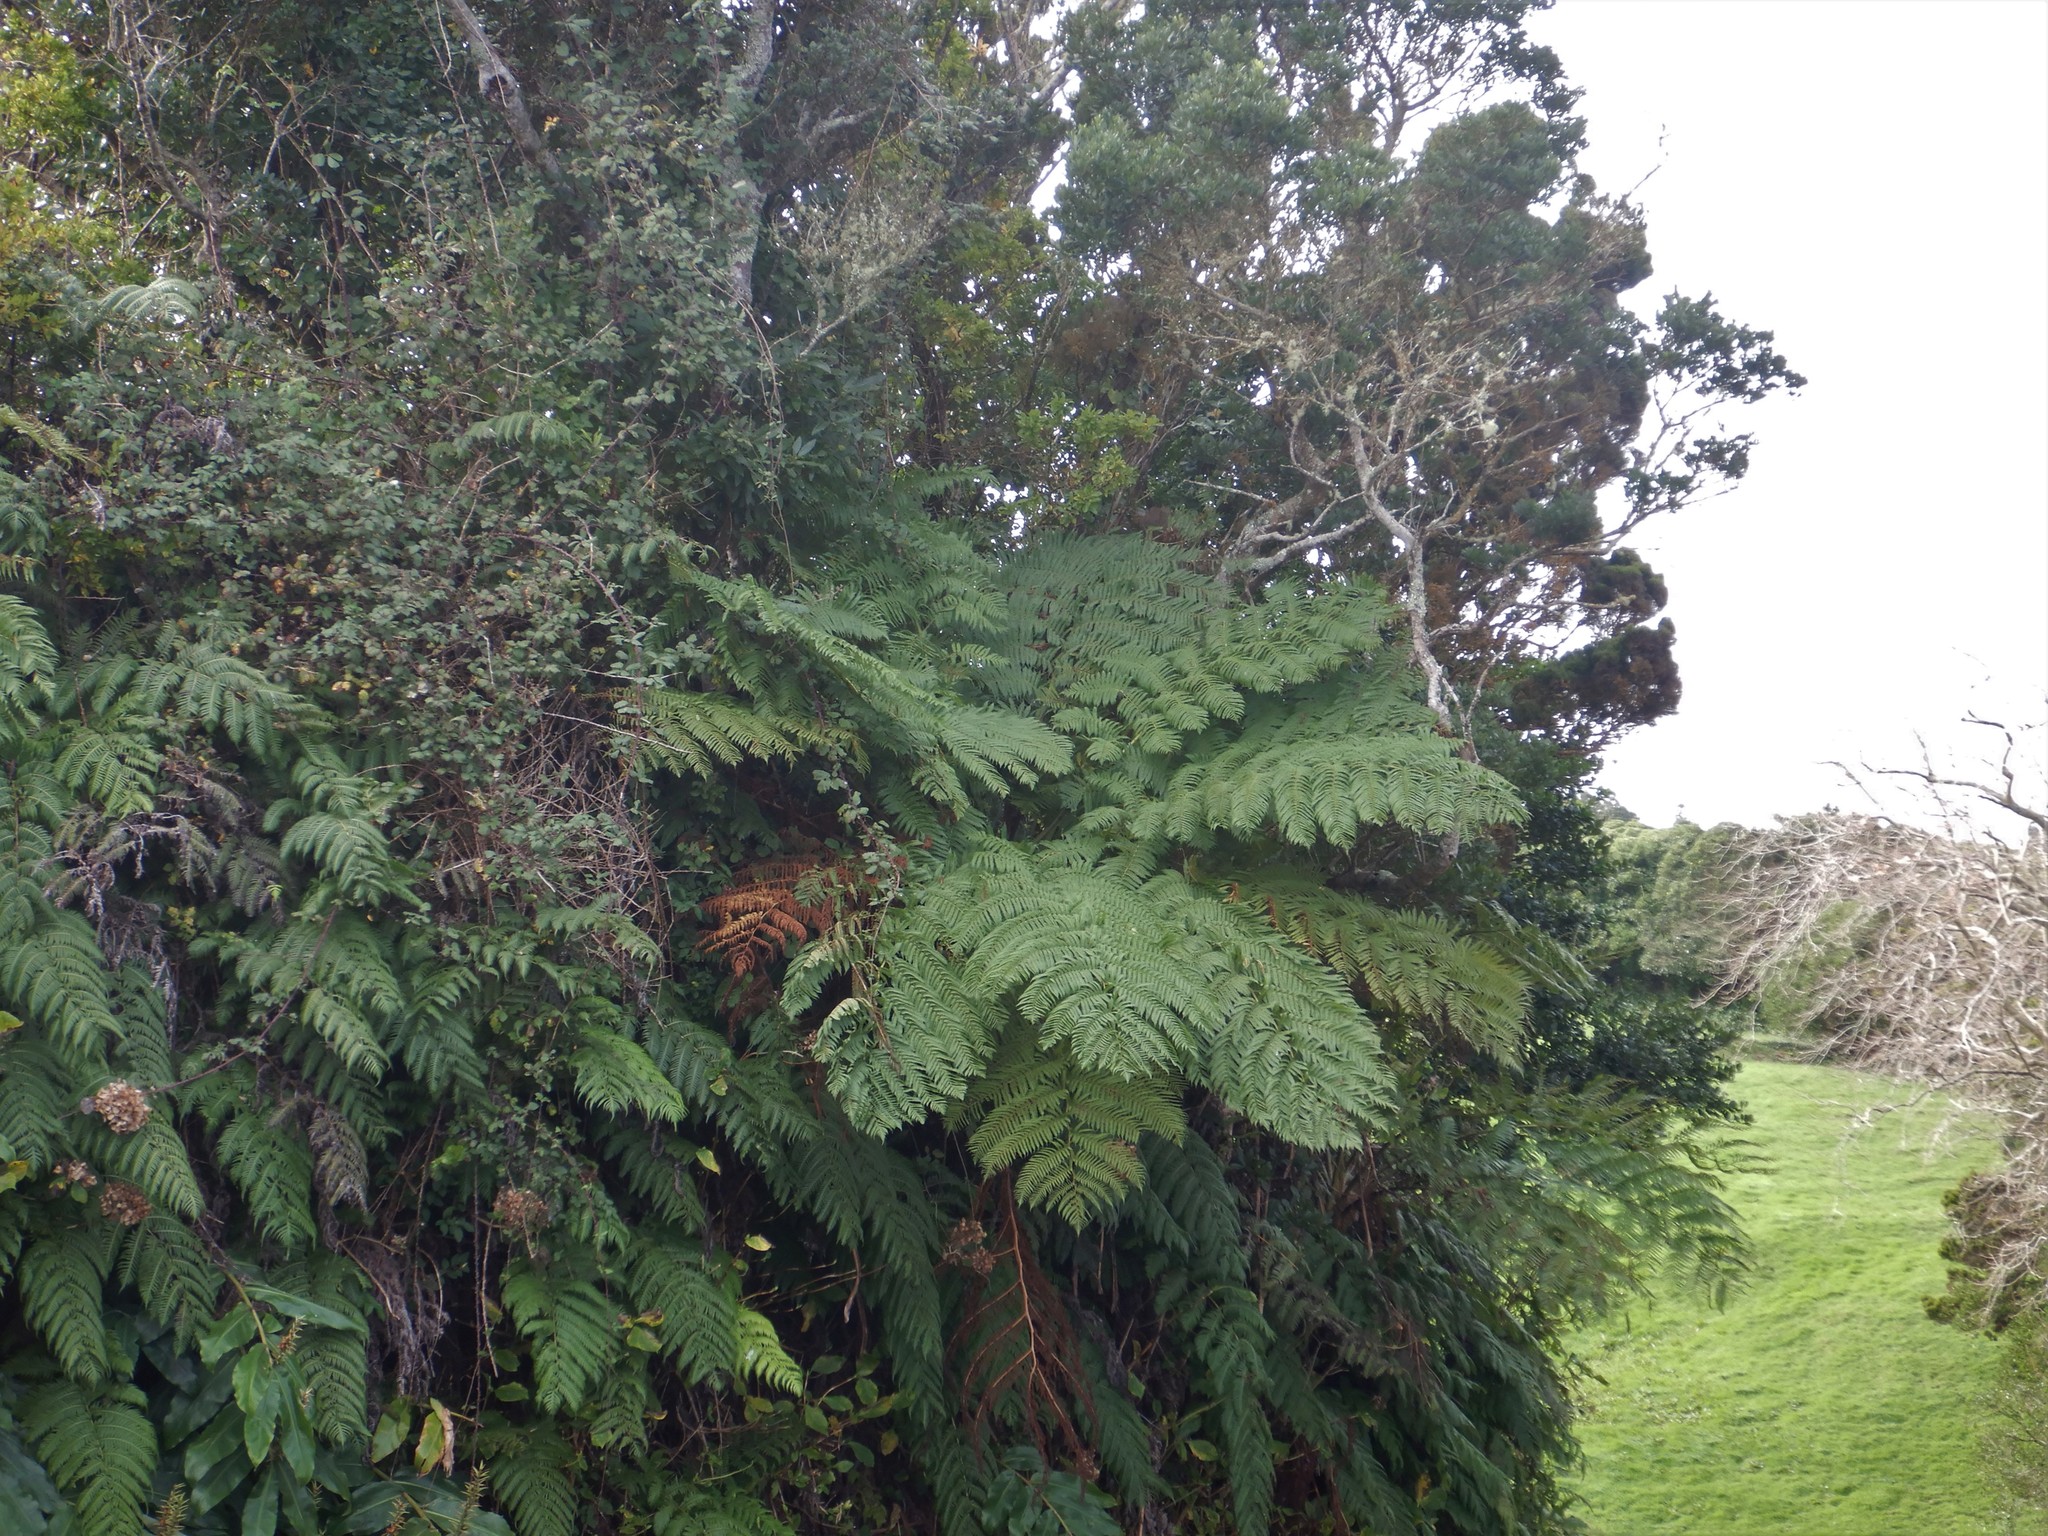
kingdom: Plantae
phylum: Tracheophyta
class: Polypodiopsida
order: Cyatheales
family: Cyatheaceae
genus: Sphaeropteris
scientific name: Sphaeropteris cooperi
